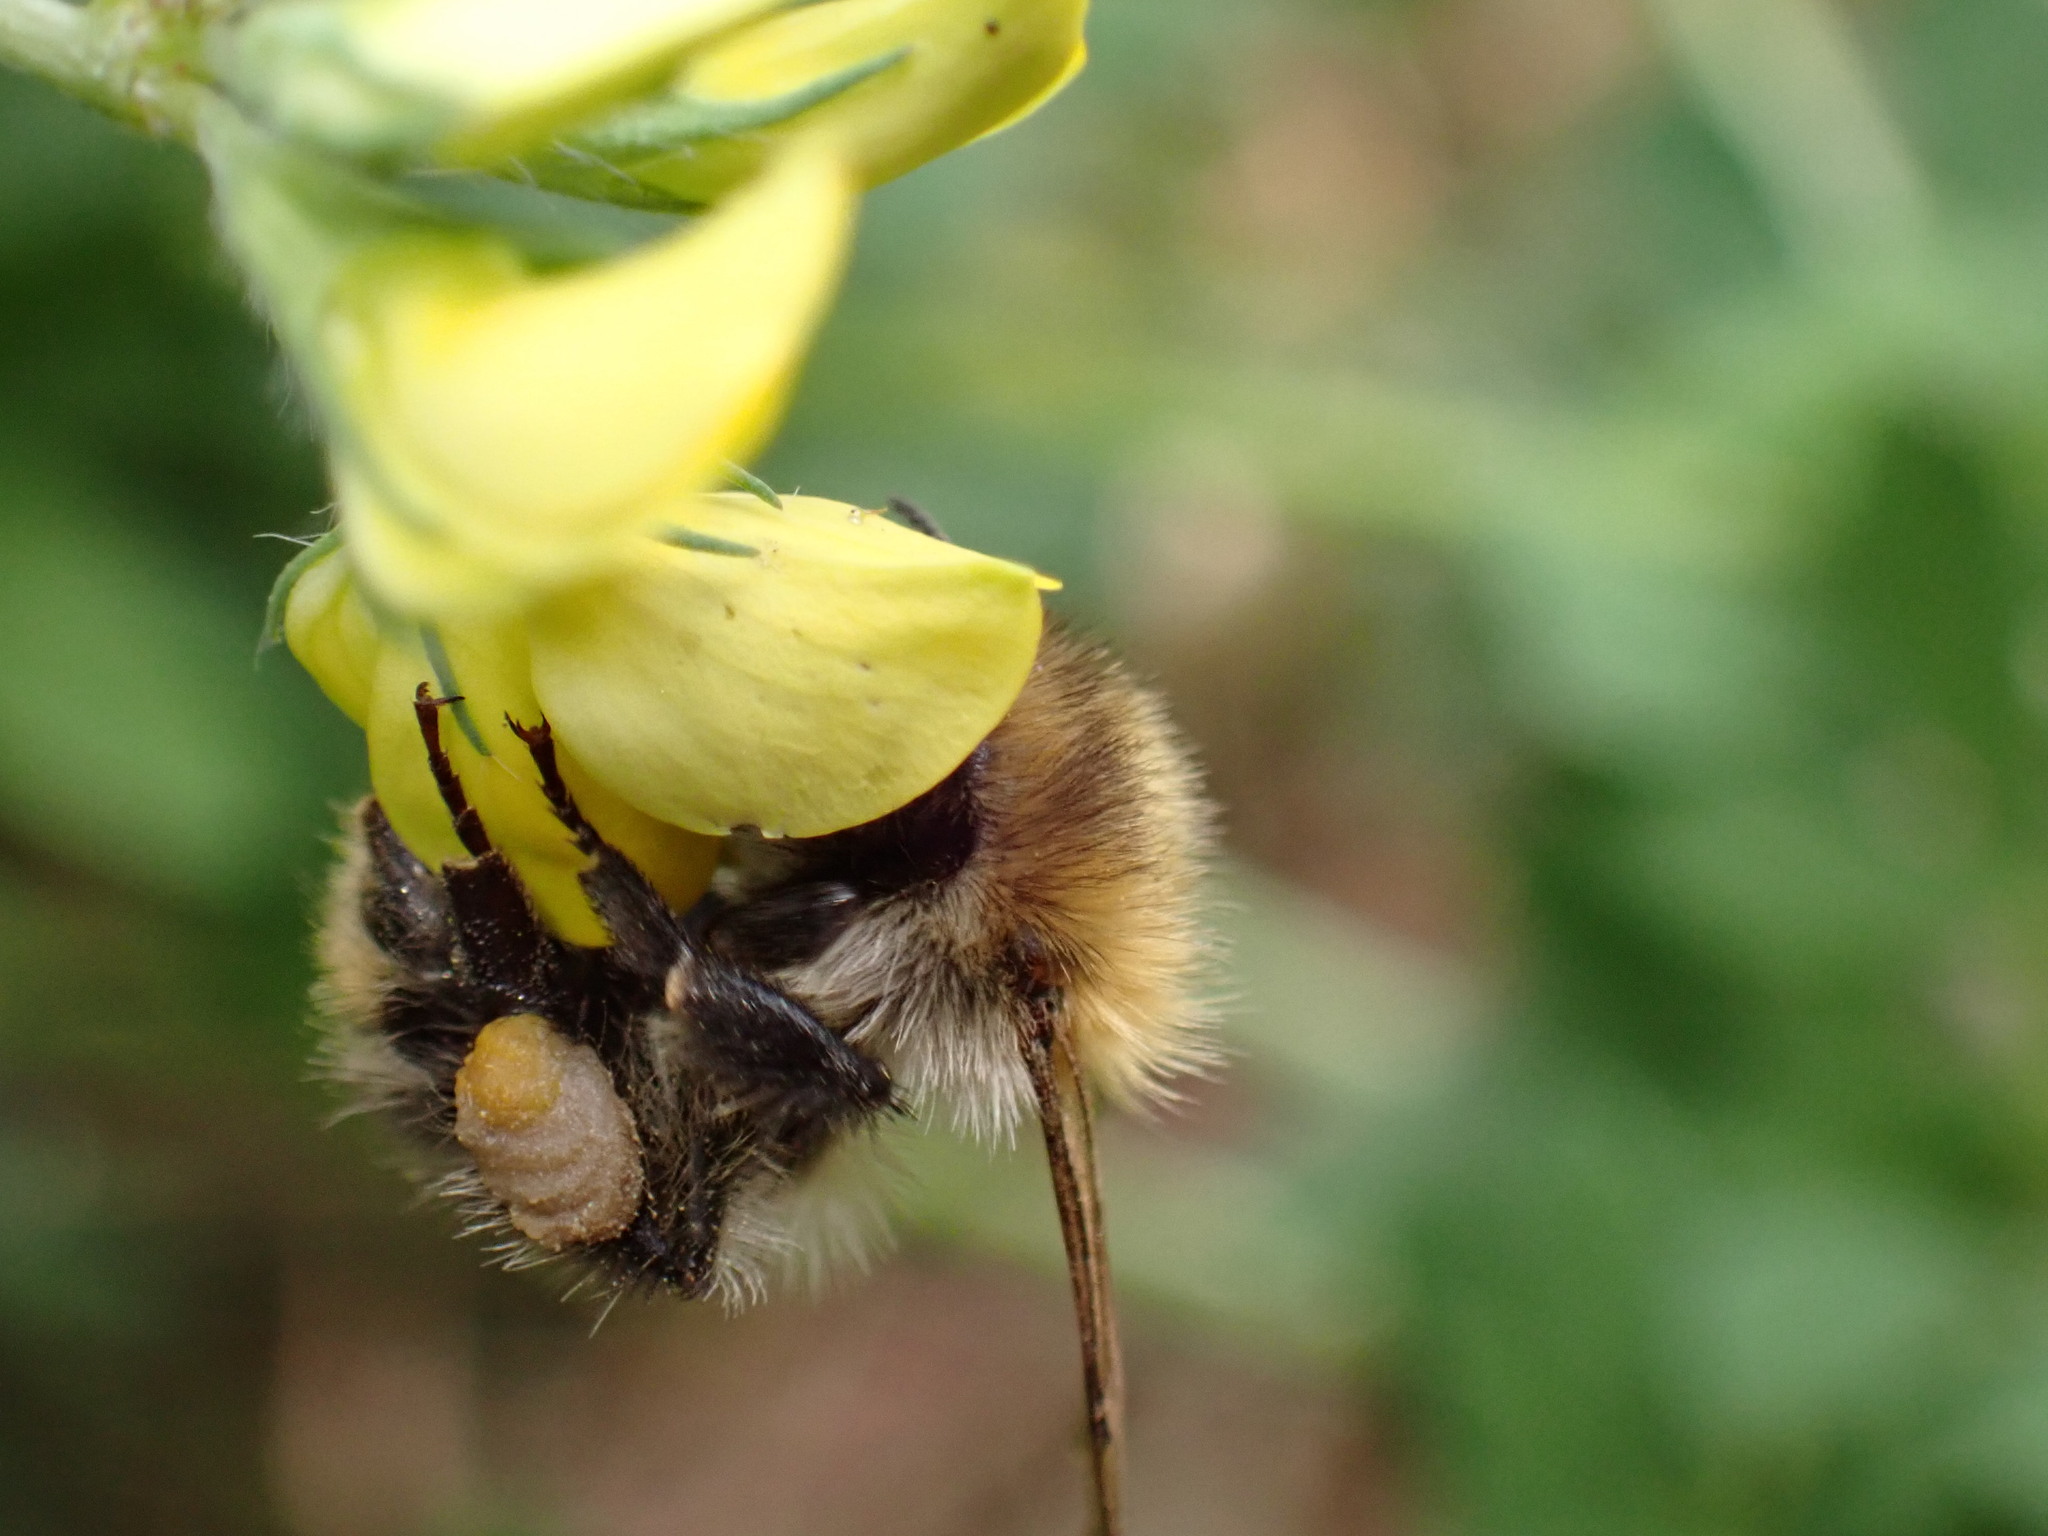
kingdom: Animalia
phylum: Arthropoda
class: Insecta
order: Hymenoptera
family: Apidae
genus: Bombus
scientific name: Bombus pascuorum
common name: Common carder bee
